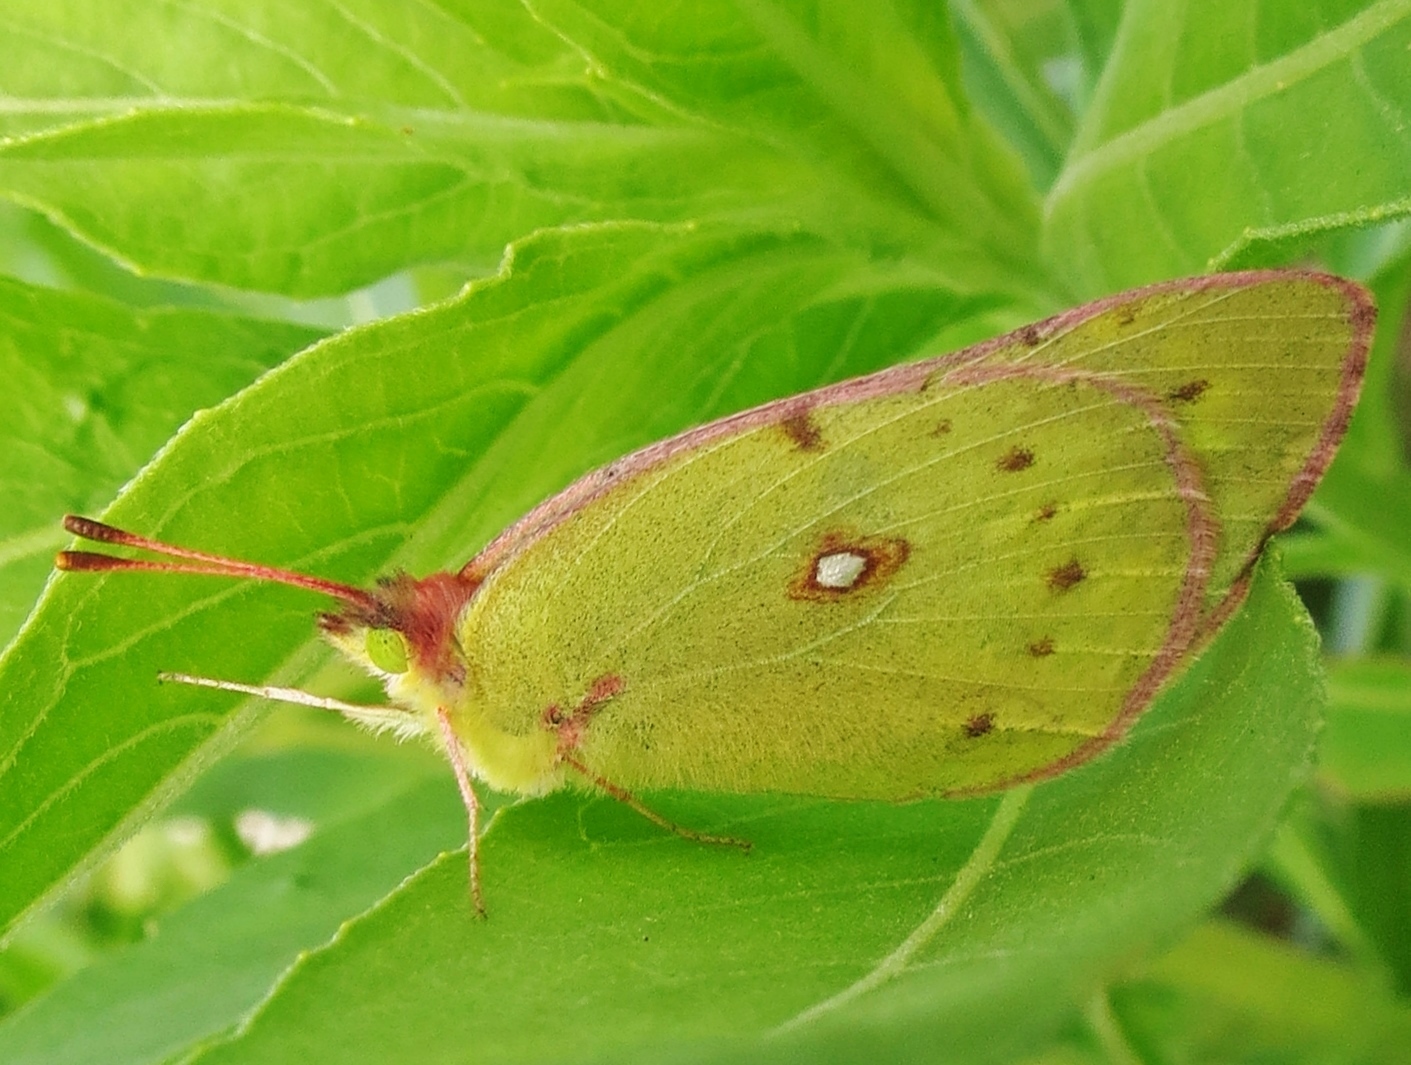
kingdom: Animalia
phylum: Arthropoda
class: Insecta
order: Lepidoptera
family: Pieridae
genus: Colias
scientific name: Colias eurytheme
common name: Alfalfa butterfly
